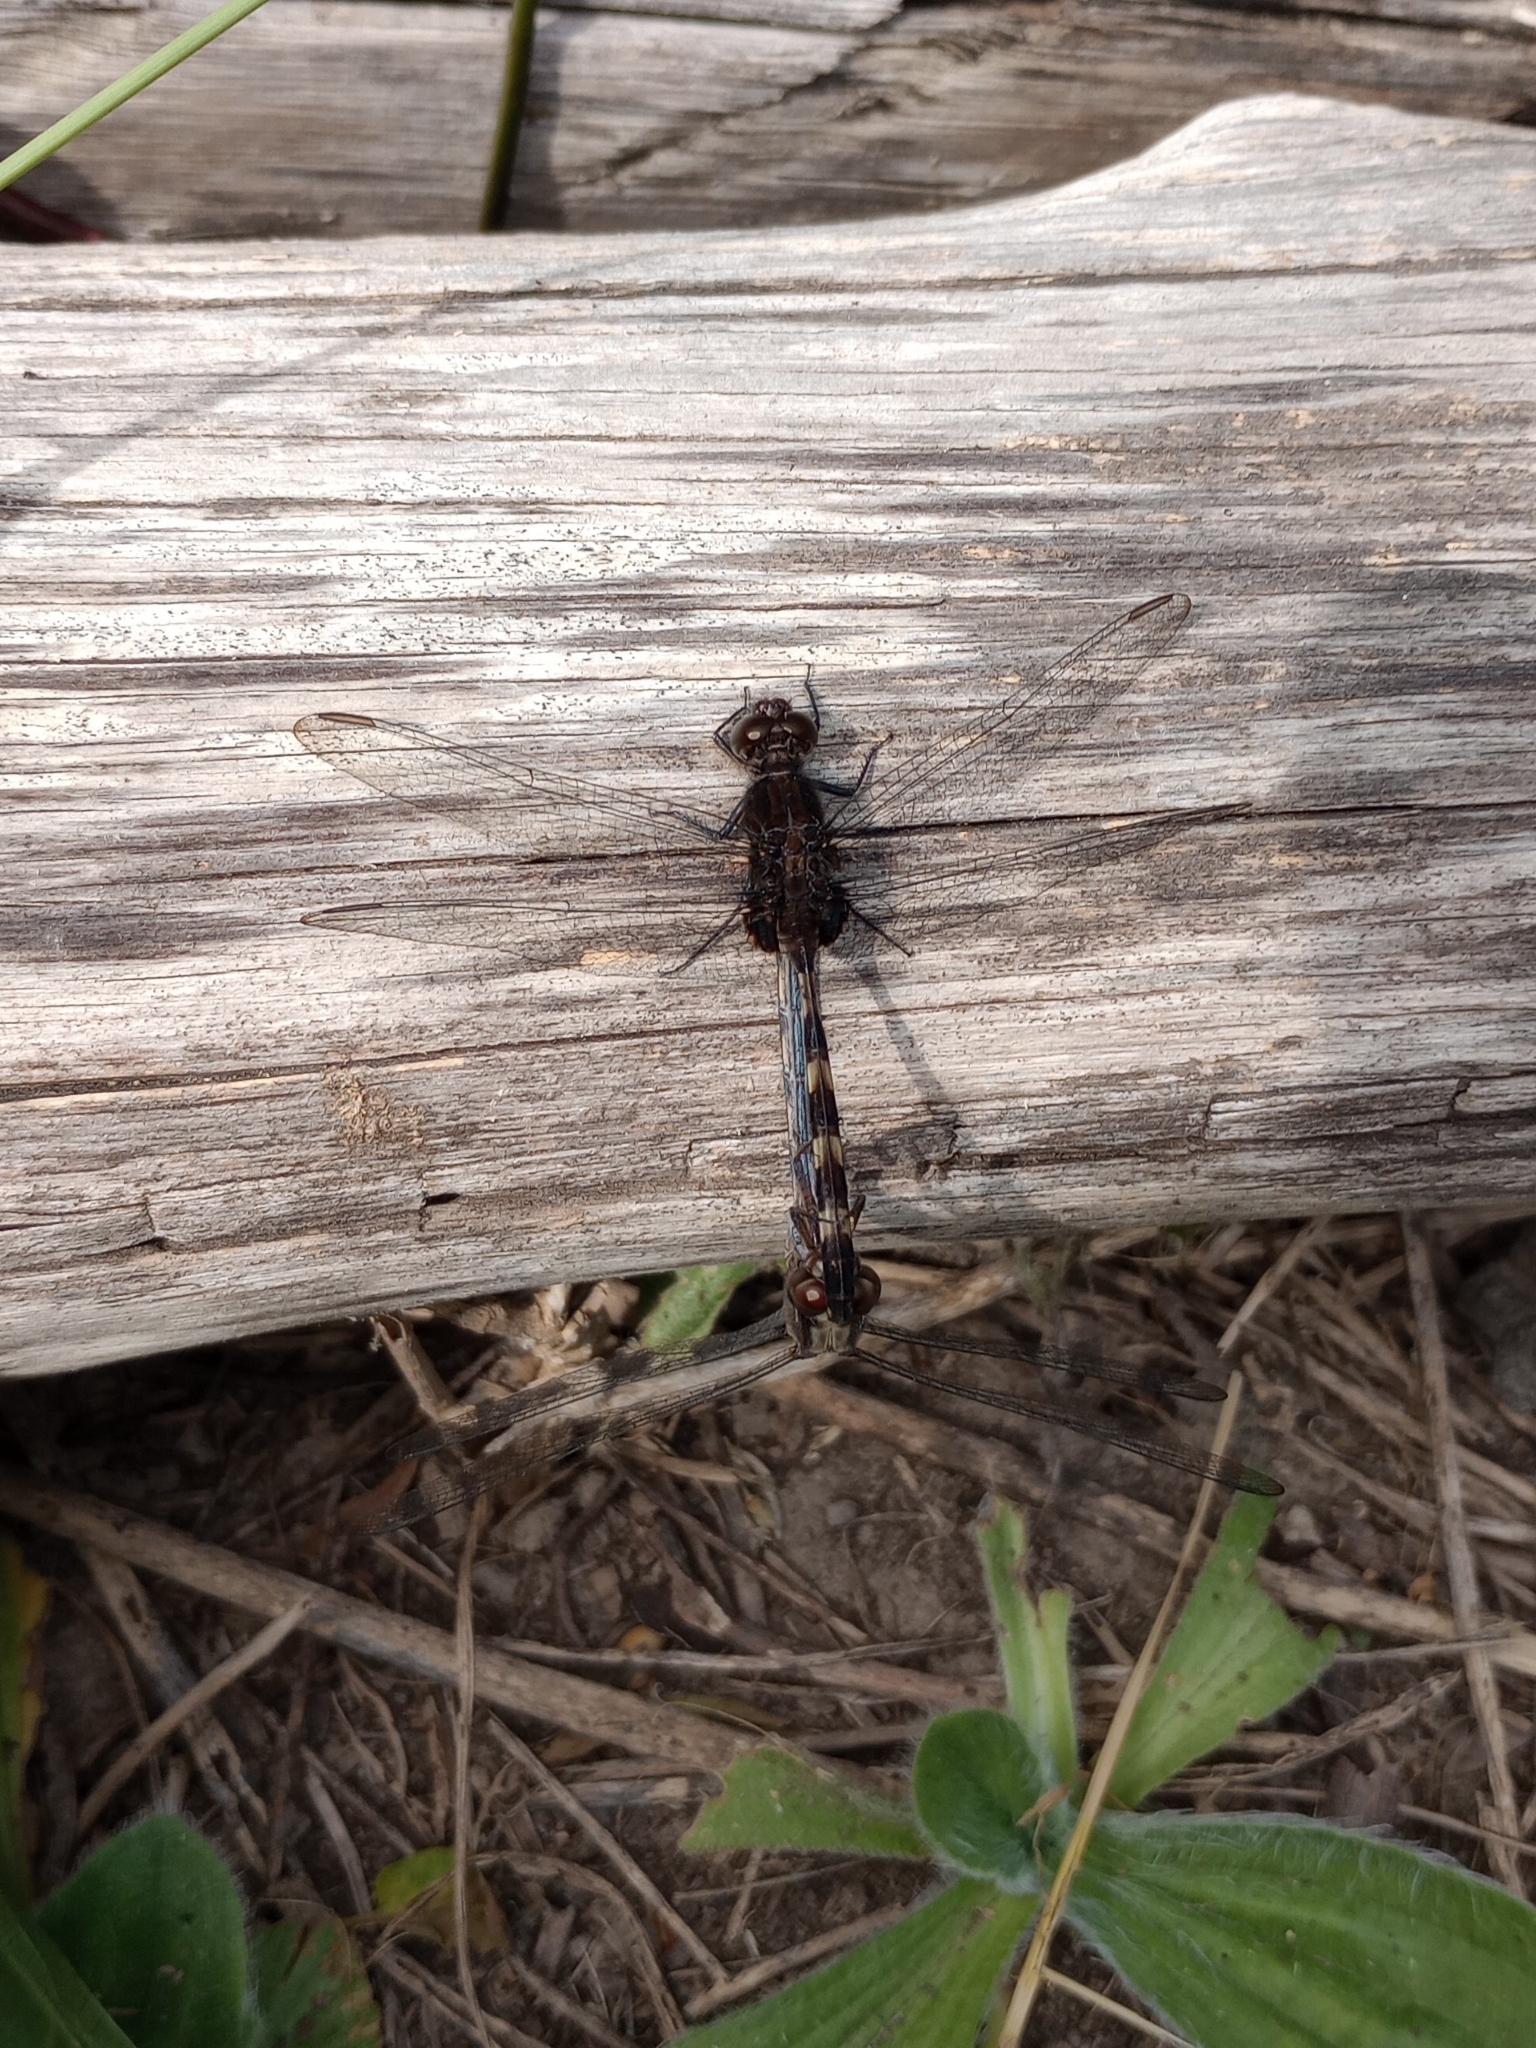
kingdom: Animalia
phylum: Arthropoda
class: Insecta
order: Odonata
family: Libellulidae
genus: Erythemis
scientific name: Erythemis plebeja
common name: Pin-tailed pondhawk
